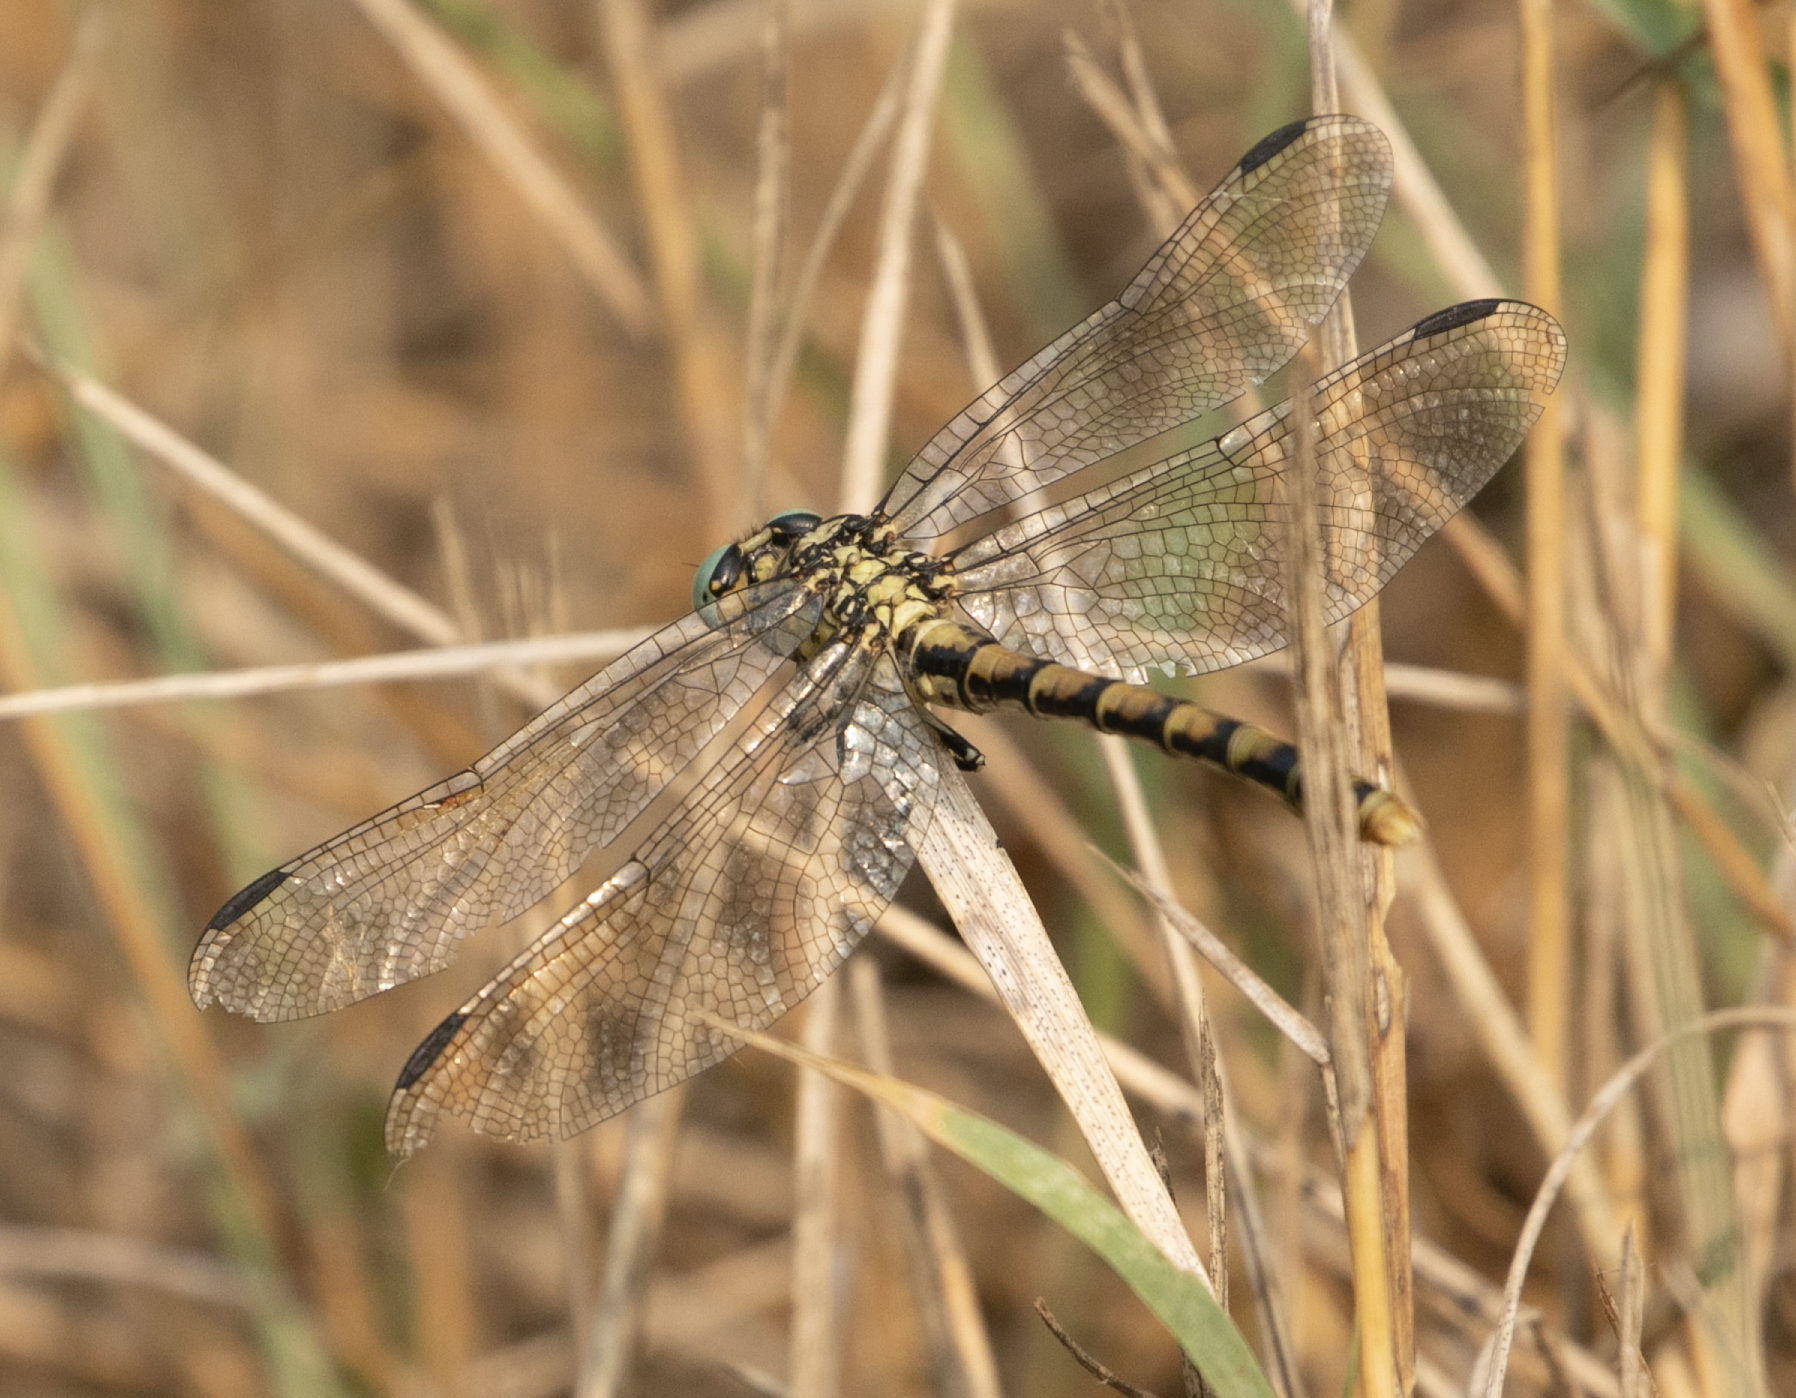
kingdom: Animalia
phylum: Arthropoda
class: Insecta
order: Odonata
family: Gomphidae
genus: Onychogomphus
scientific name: Onychogomphus forcipatus
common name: Small pincertail
